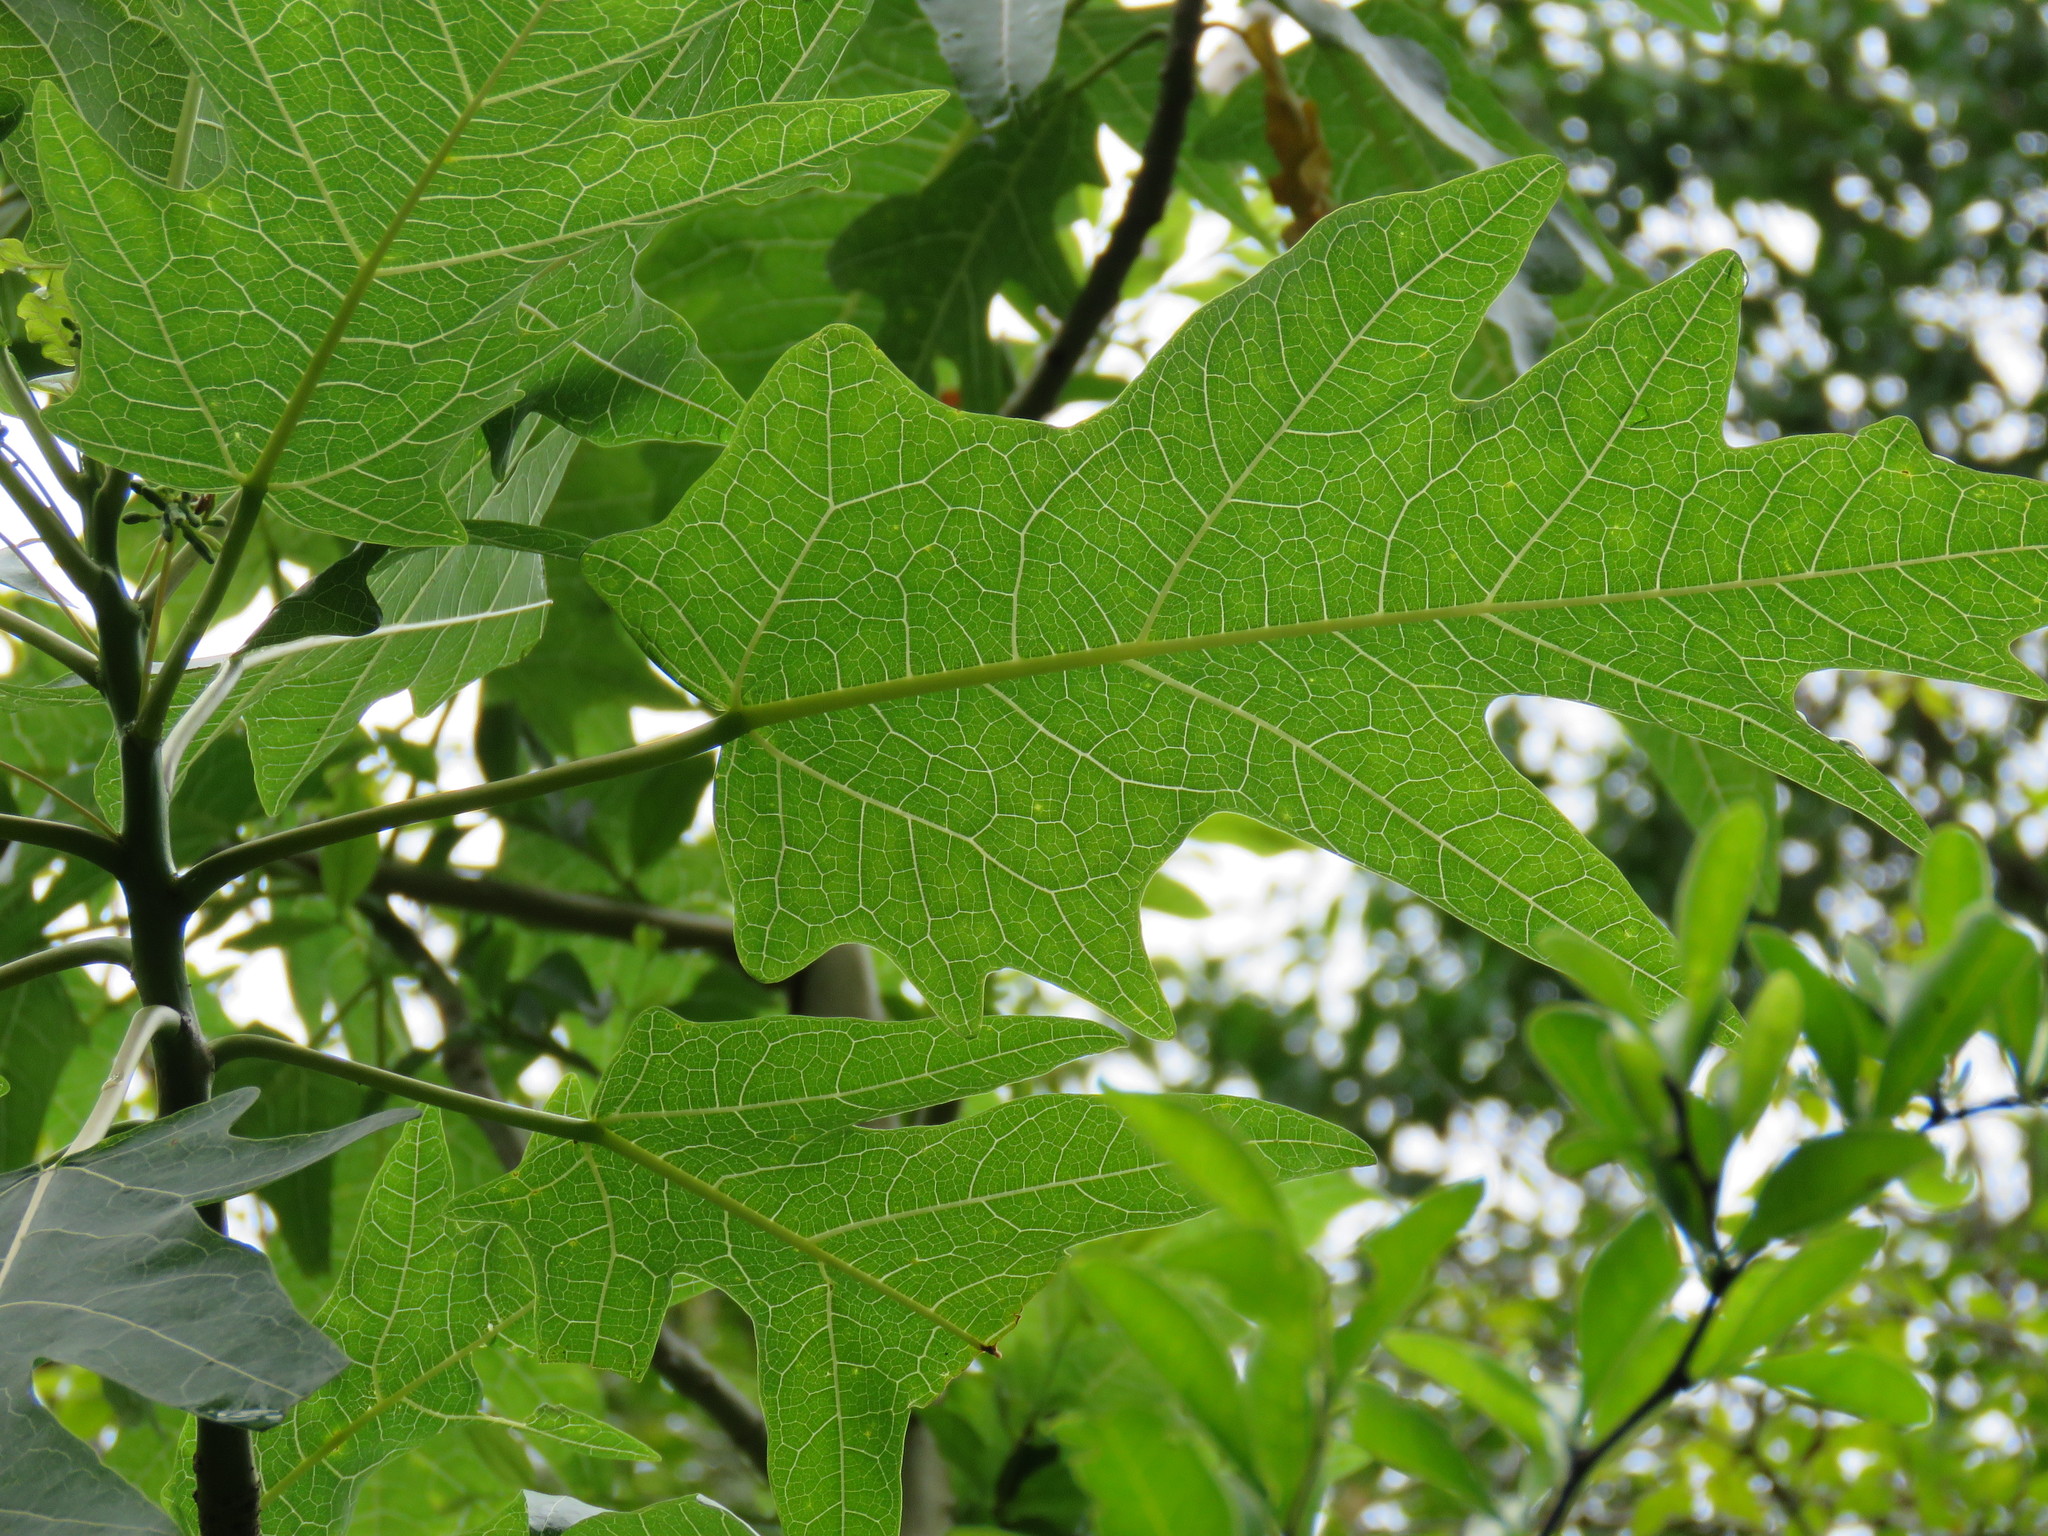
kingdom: Plantae
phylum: Tracheophyta
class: Magnoliopsida
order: Brassicales
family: Caricaceae
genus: Vasconcellea
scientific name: Vasconcellea quercifolia
